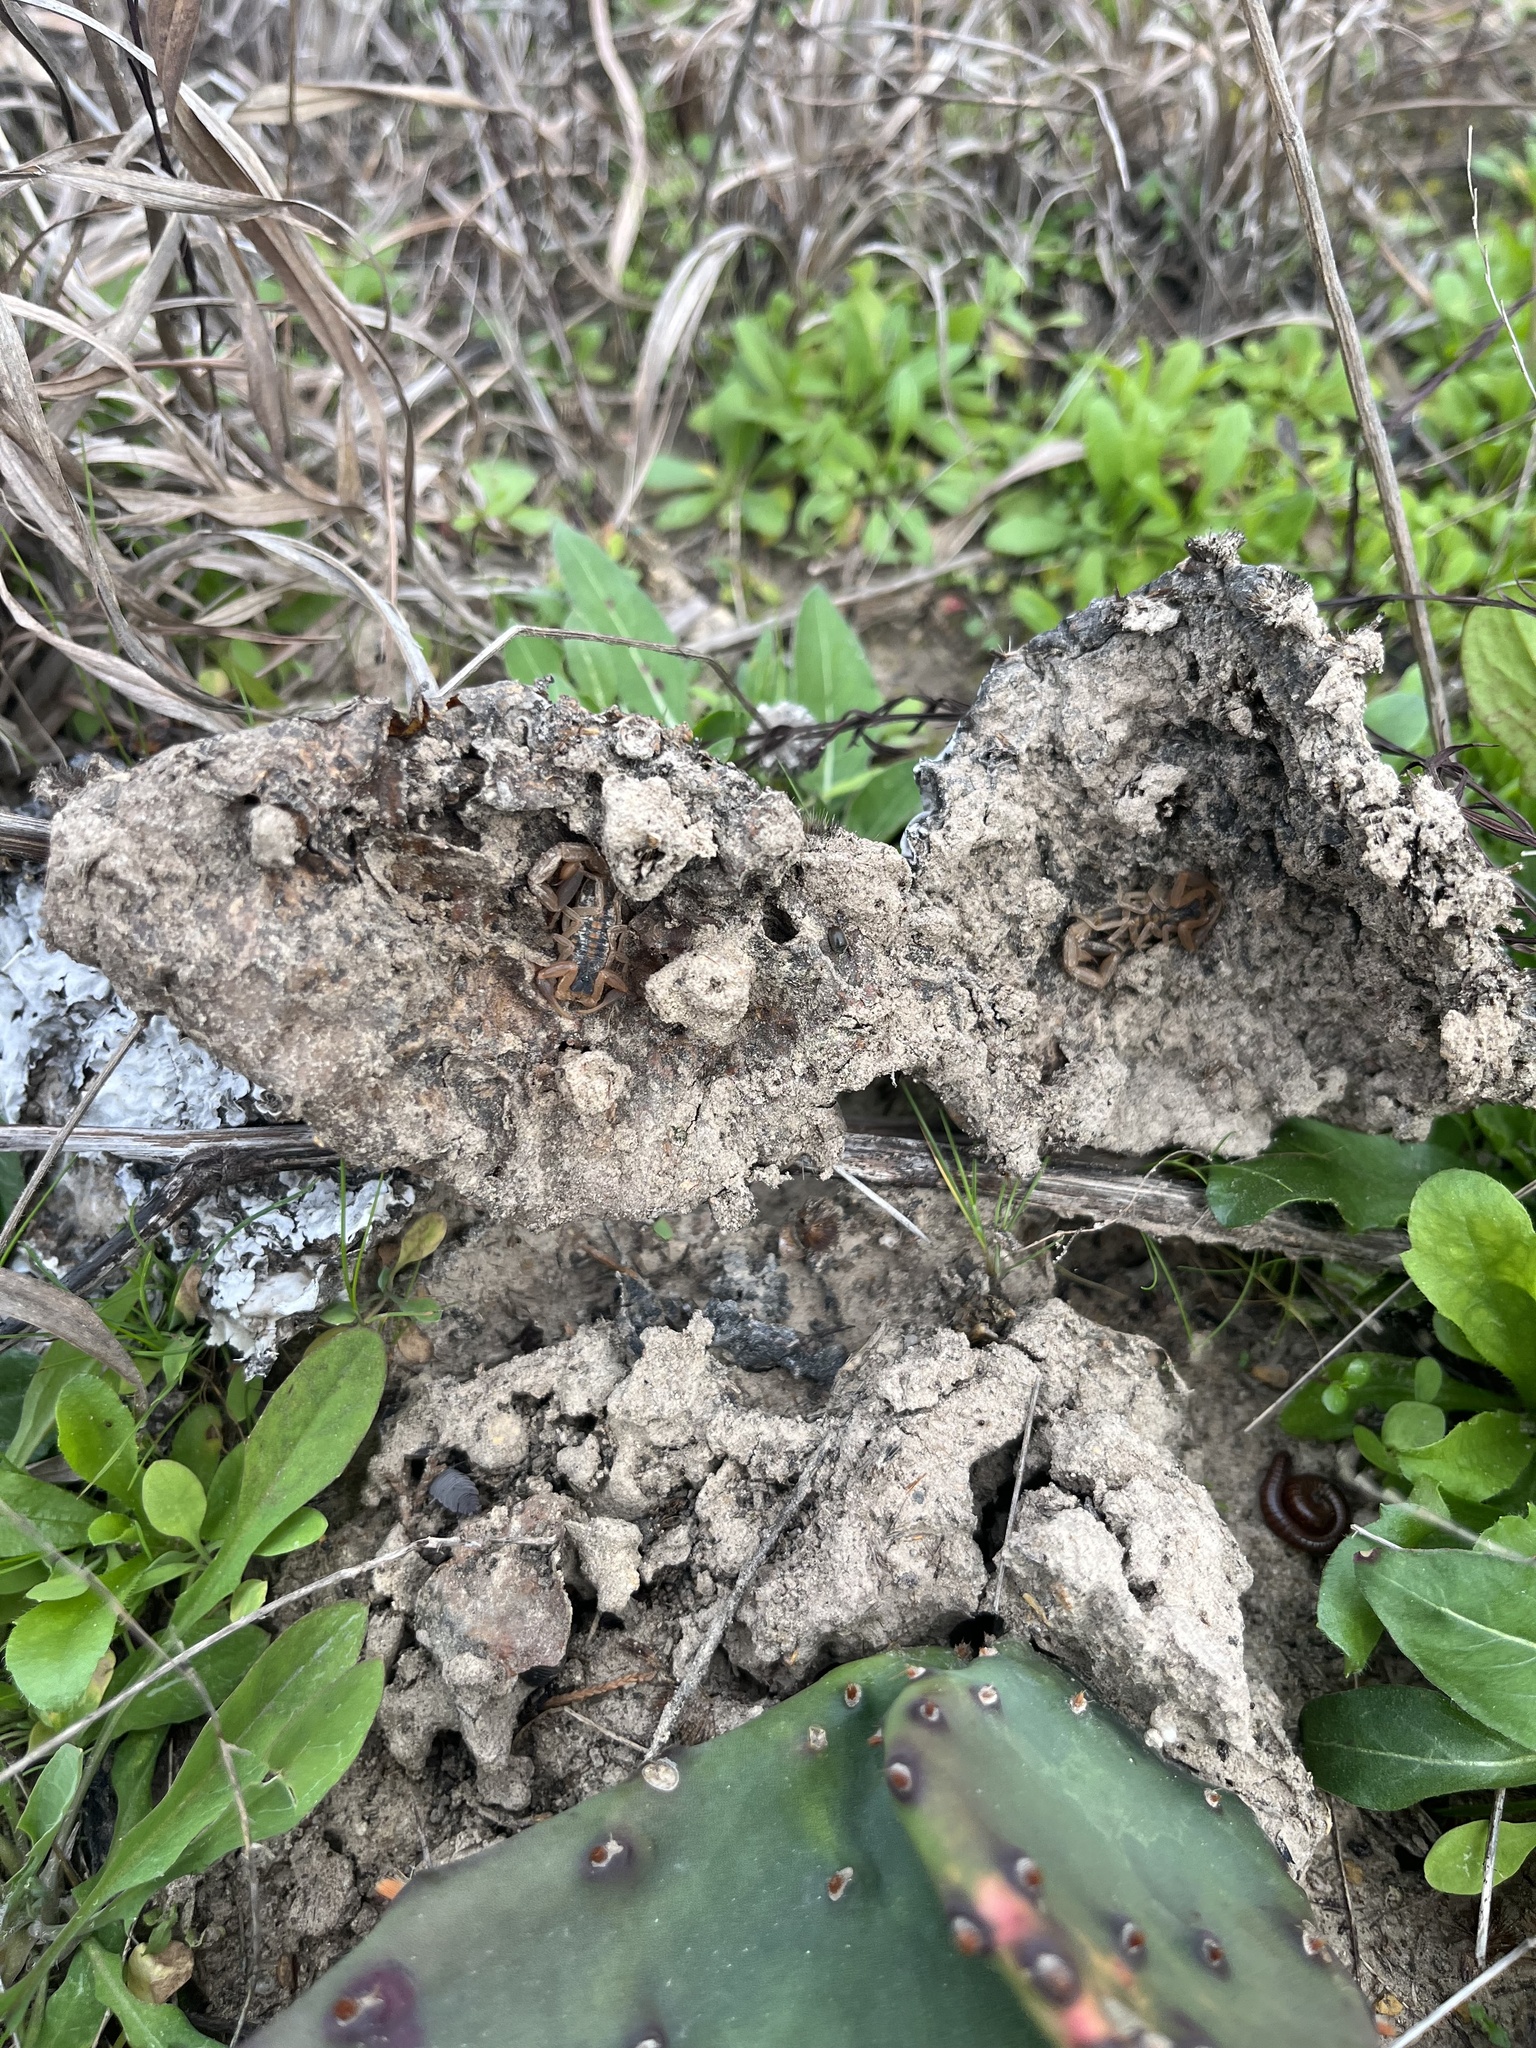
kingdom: Animalia
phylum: Arthropoda
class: Arachnida
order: Scorpiones
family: Buthidae
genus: Centruroides
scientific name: Centruroides vittatus
